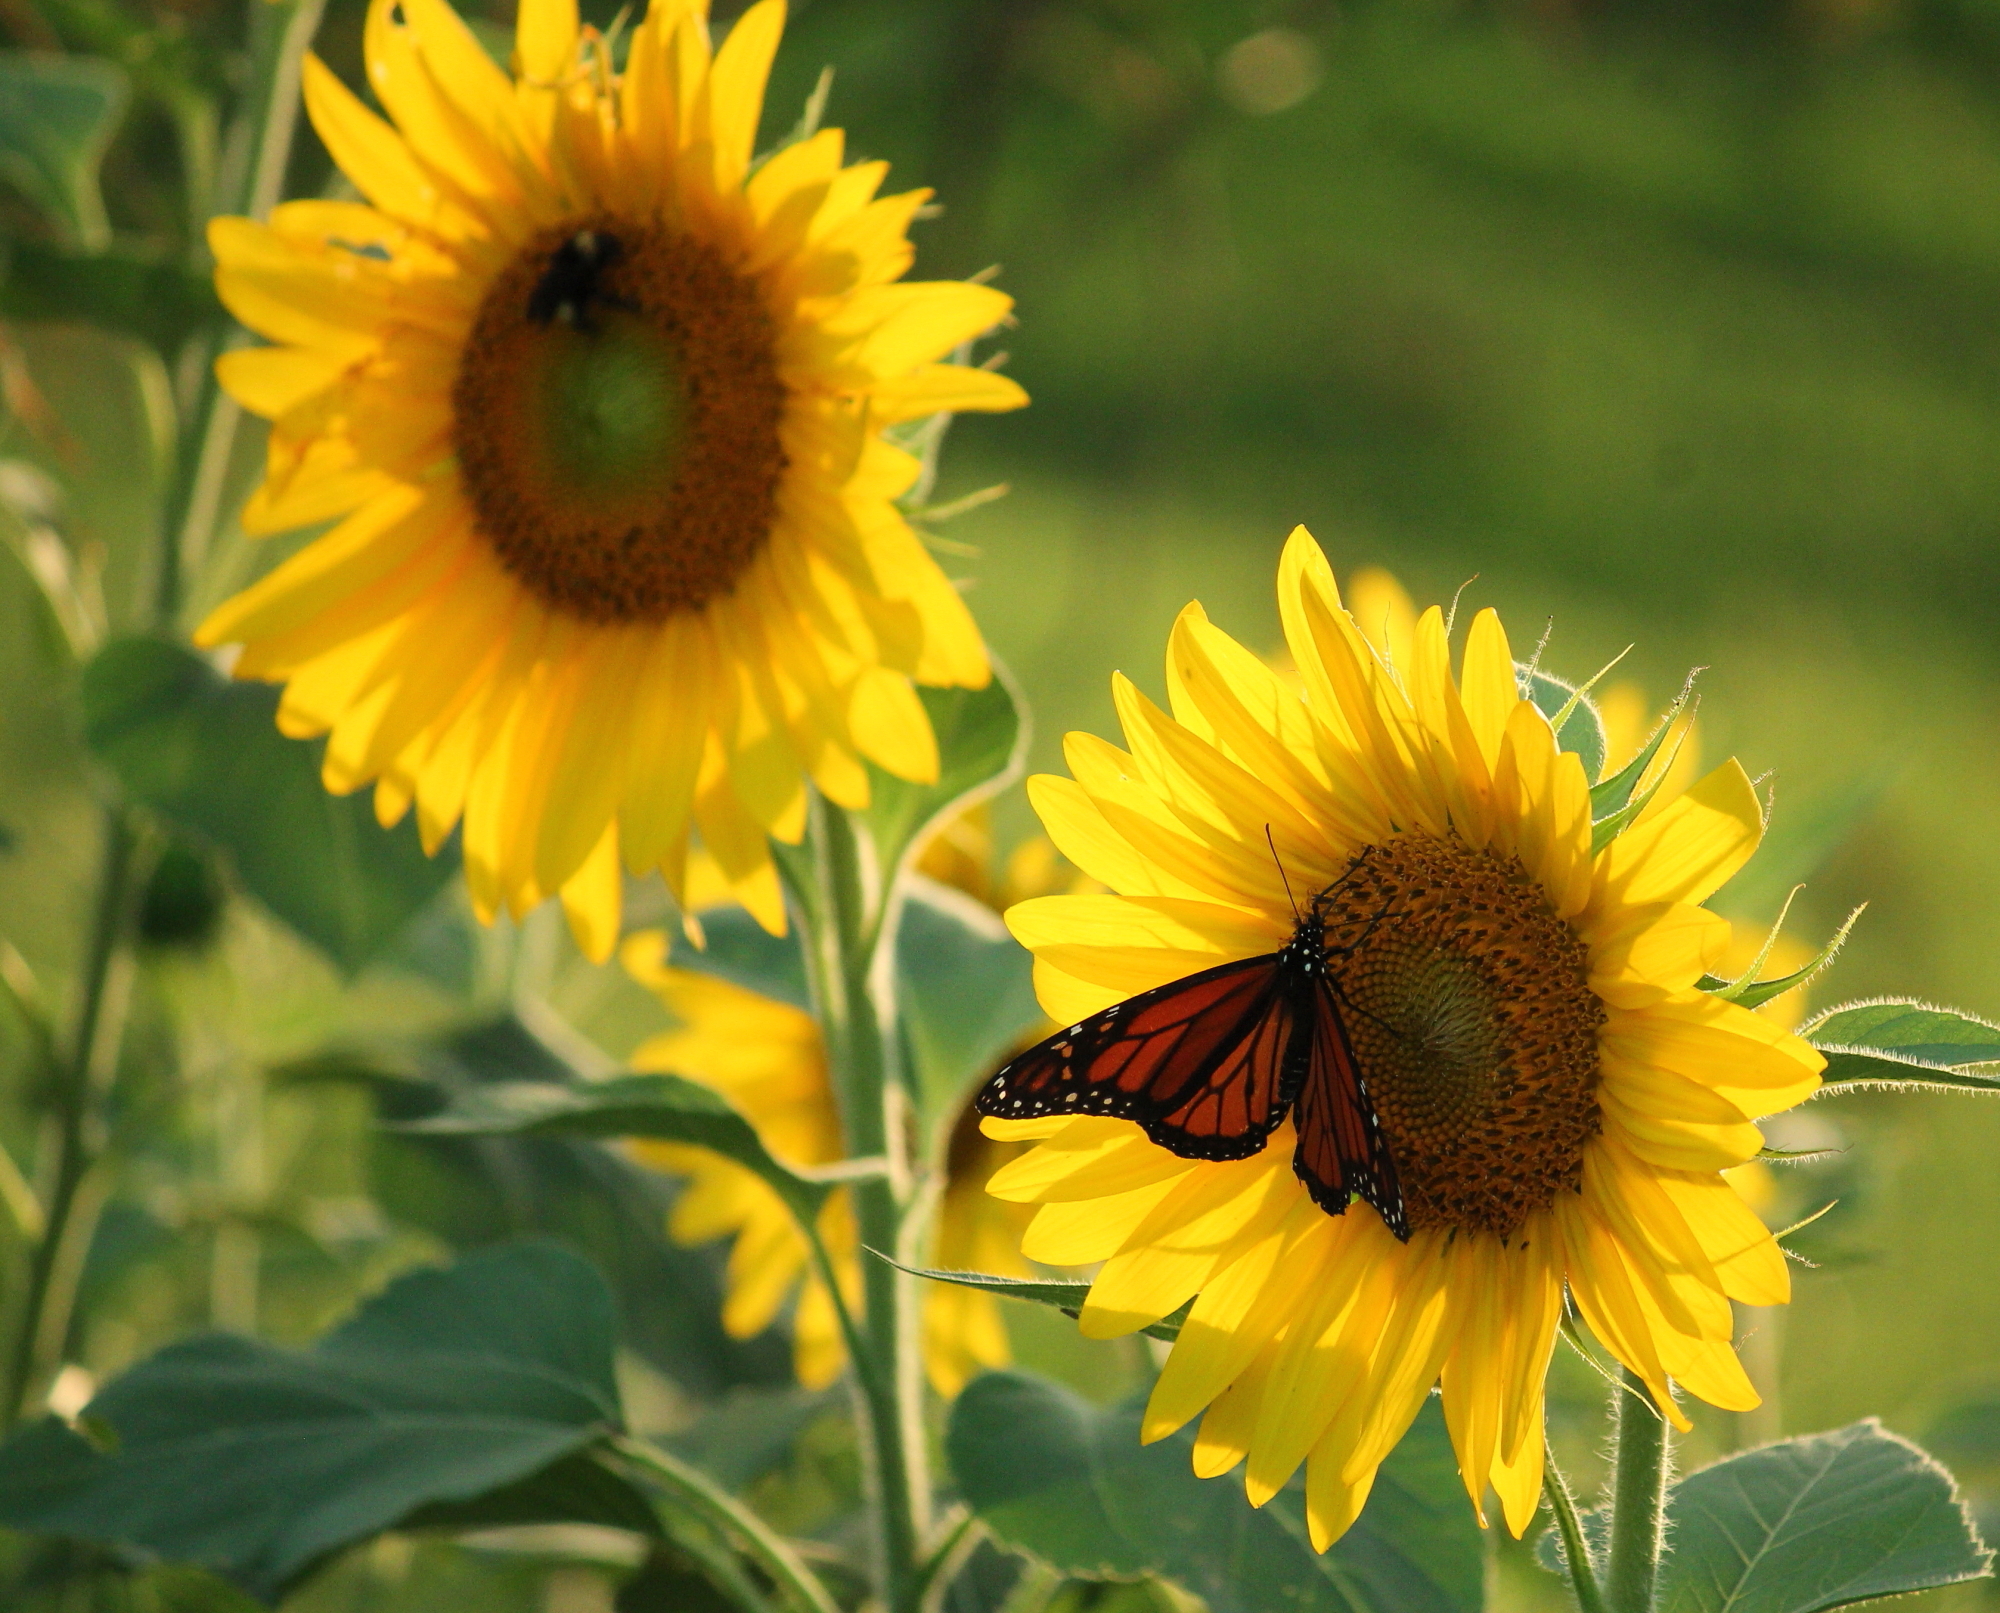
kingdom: Animalia
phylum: Arthropoda
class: Insecta
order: Lepidoptera
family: Nymphalidae
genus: Danaus
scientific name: Danaus plexippus
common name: Monarch
